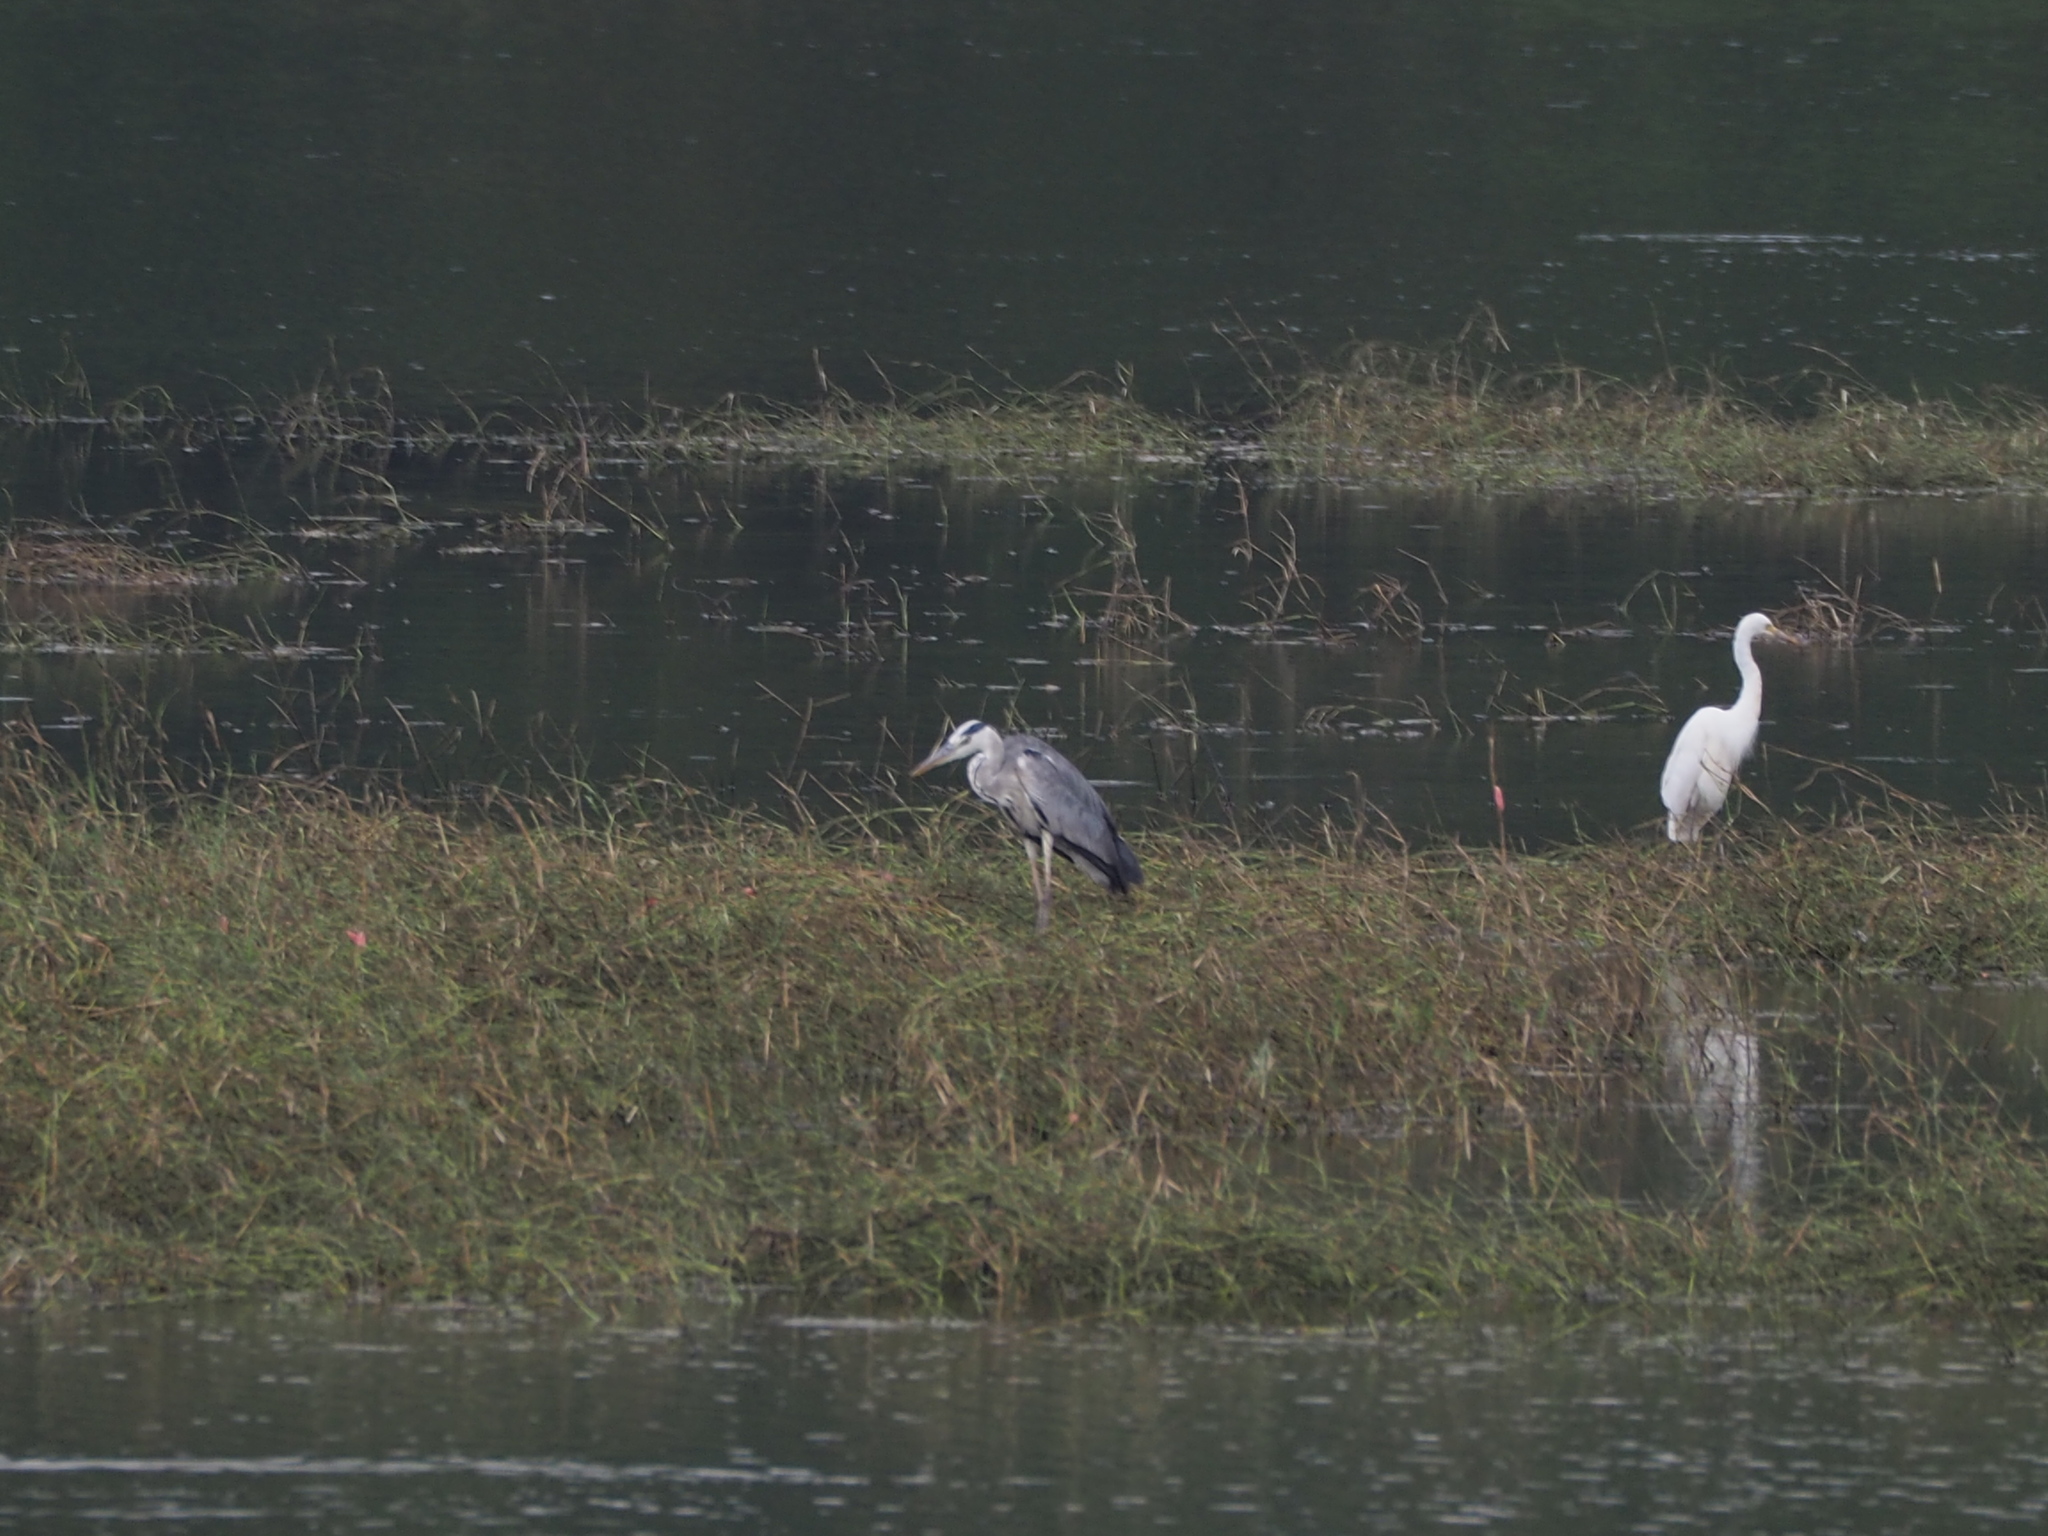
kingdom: Animalia
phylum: Chordata
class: Aves
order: Pelecaniformes
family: Ardeidae
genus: Ardea
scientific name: Ardea cinerea
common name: Grey heron
